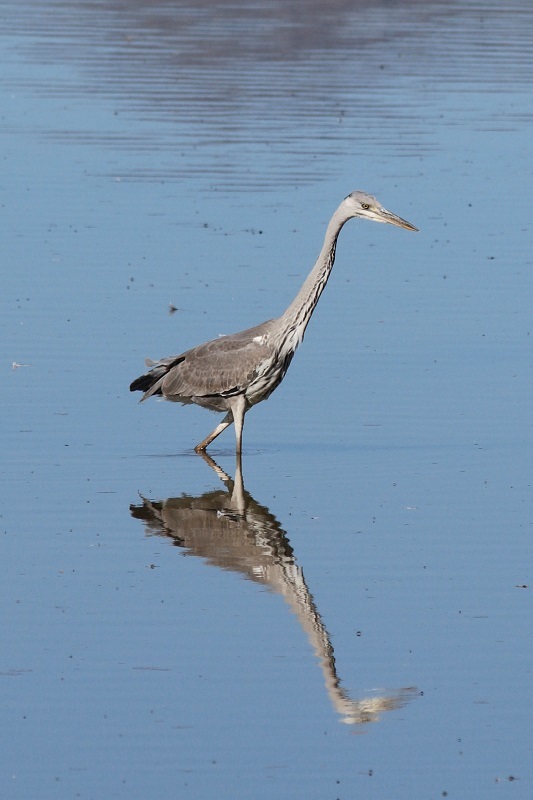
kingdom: Animalia
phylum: Chordata
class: Aves
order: Pelecaniformes
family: Ardeidae
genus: Ardea
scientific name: Ardea cinerea
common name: Grey heron
